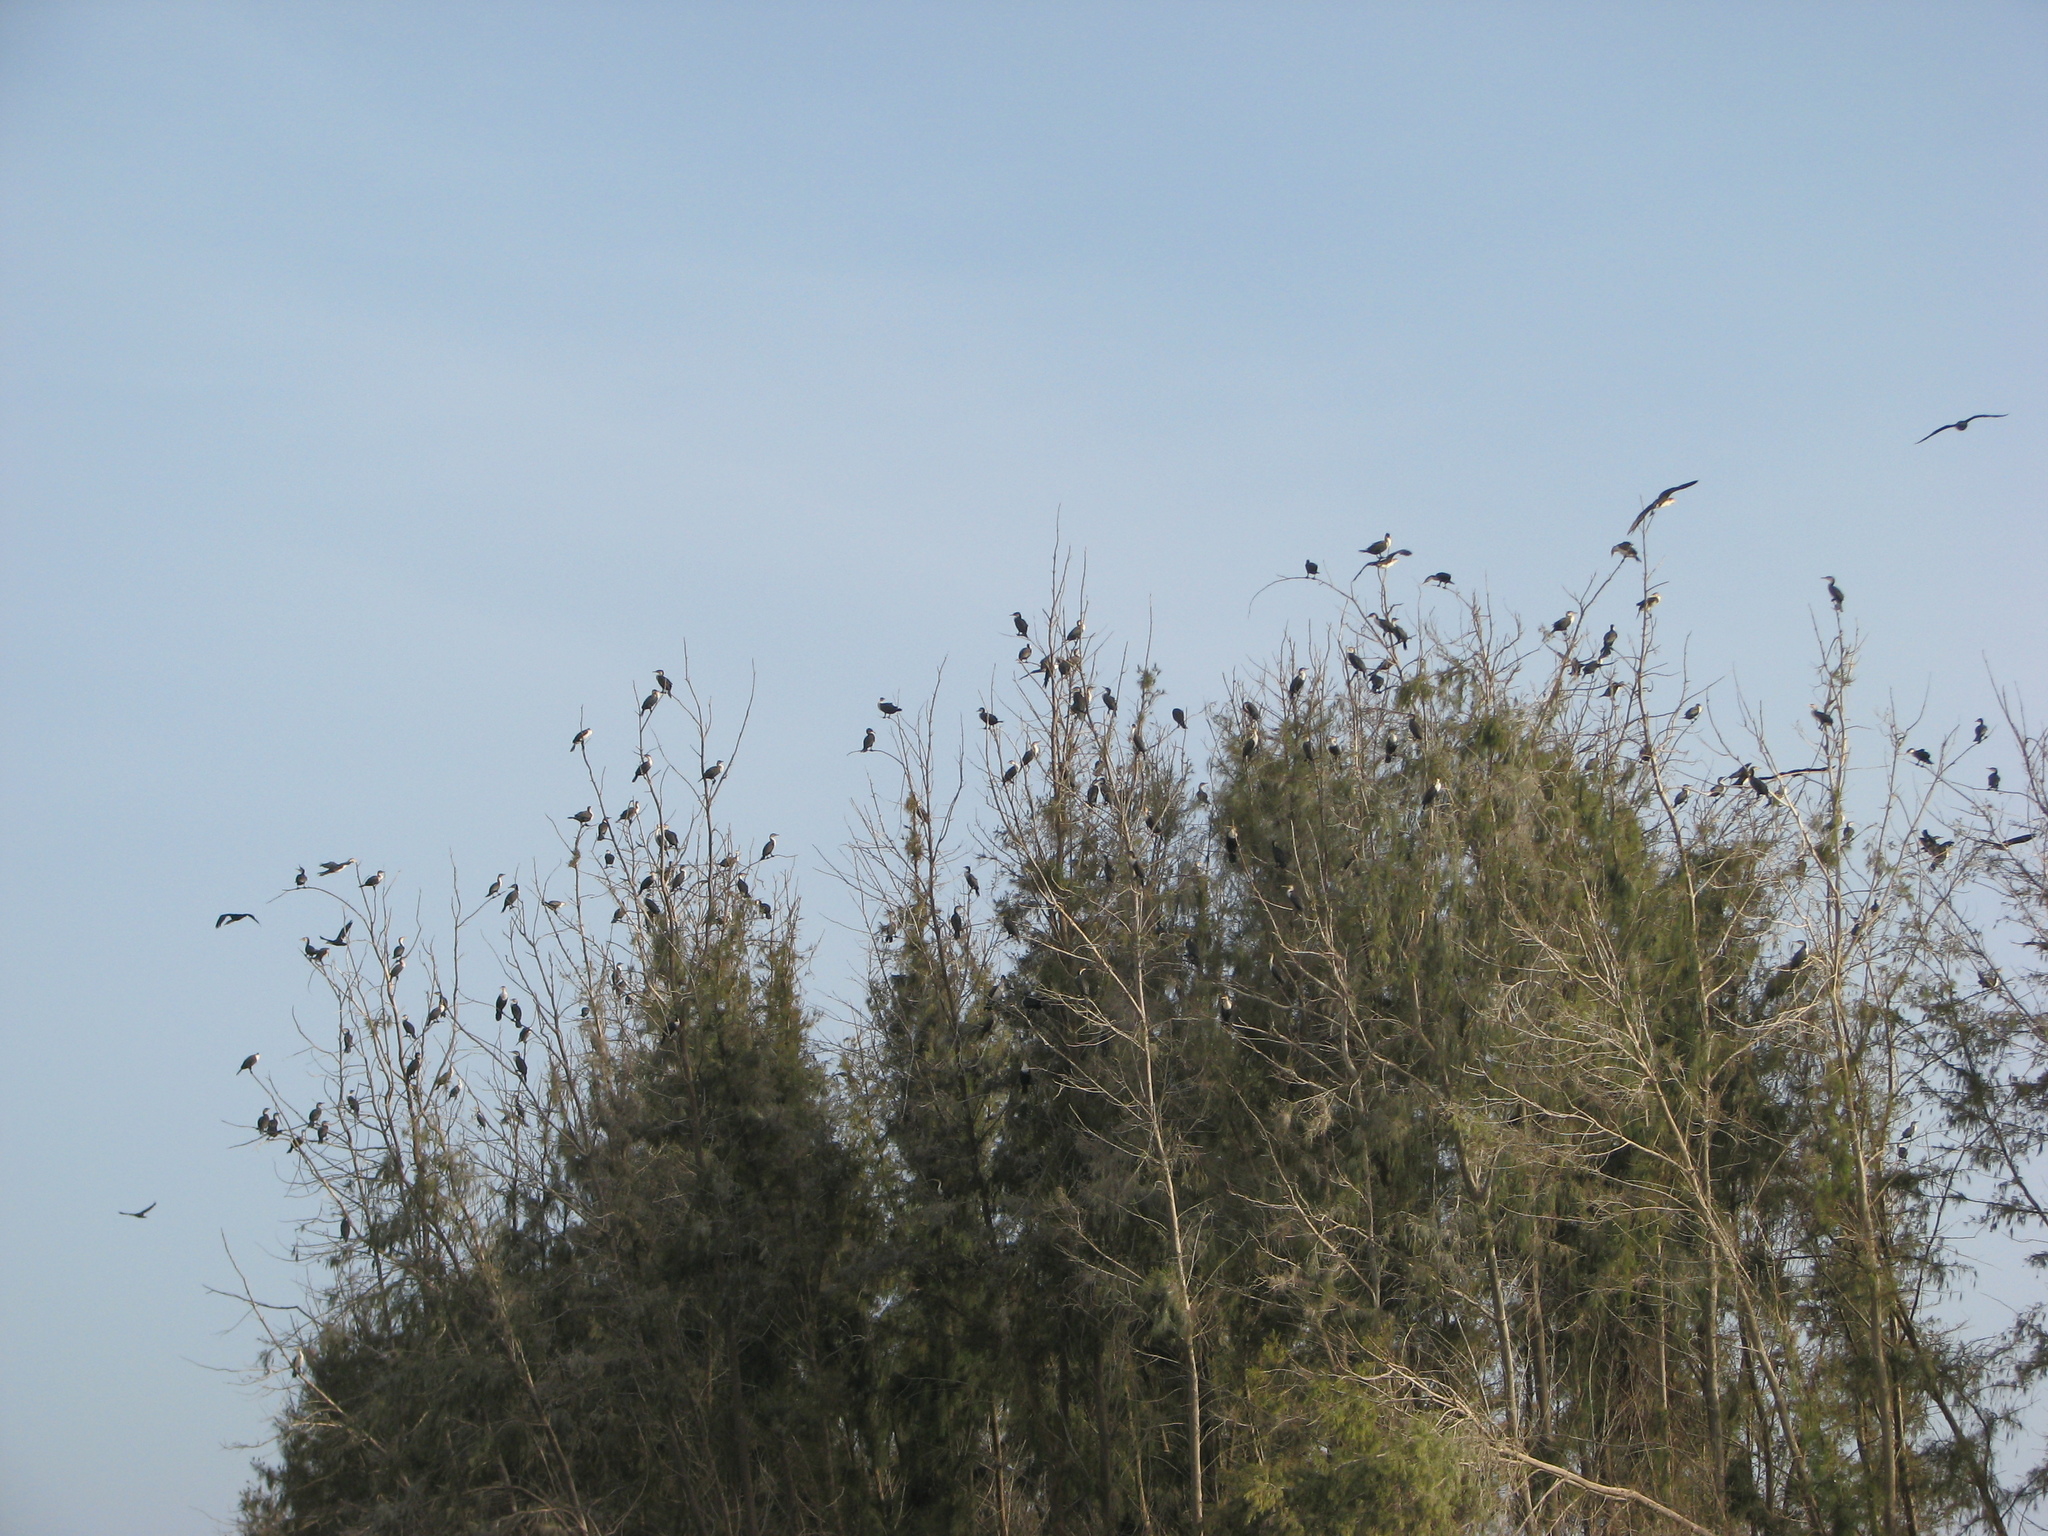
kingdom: Animalia
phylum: Chordata
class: Aves
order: Suliformes
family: Phalacrocoracidae
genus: Phalacrocorax
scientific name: Phalacrocorax carbo
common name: Great cormorant
